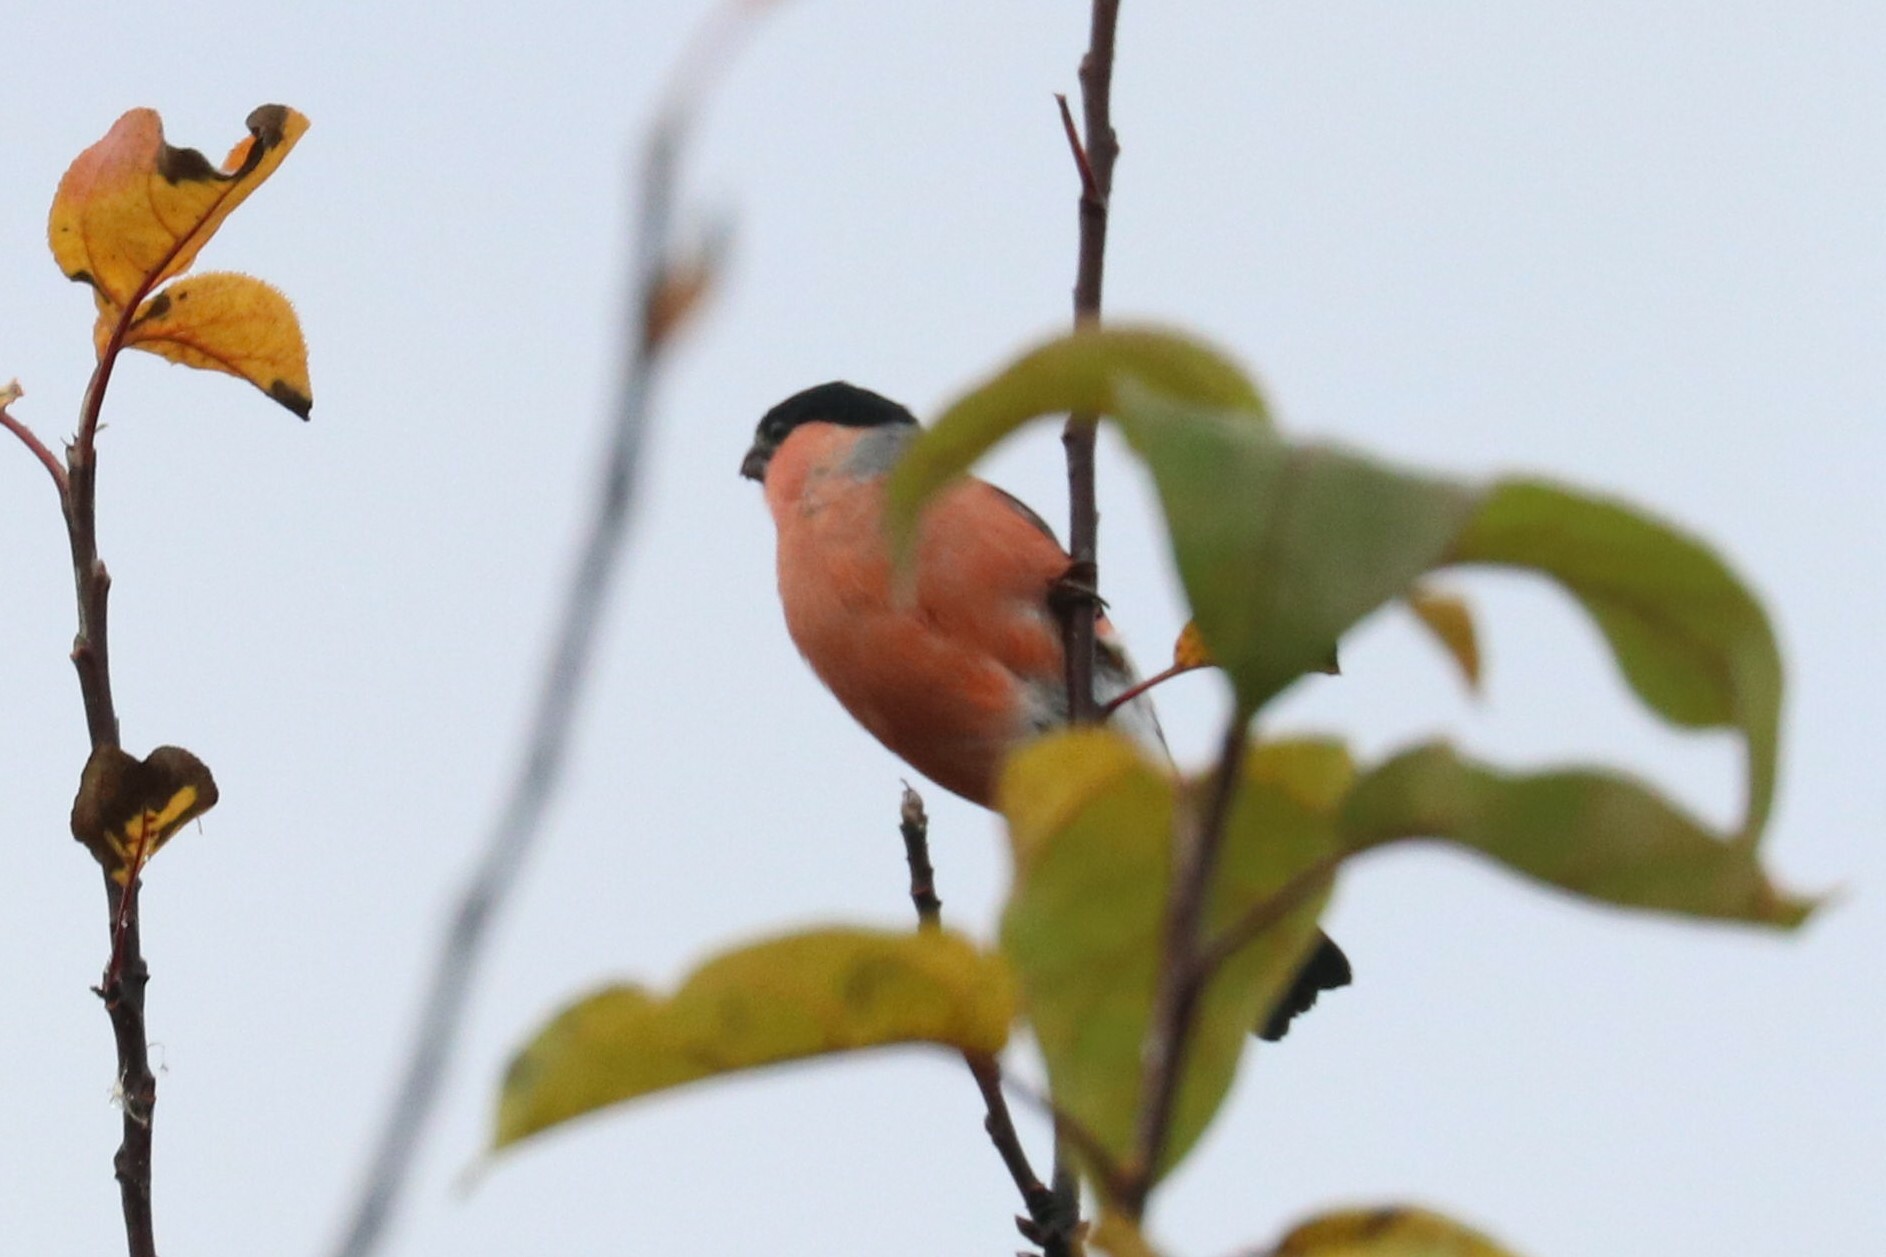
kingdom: Animalia
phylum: Chordata
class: Aves
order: Passeriformes
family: Fringillidae
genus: Pyrrhula
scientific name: Pyrrhula pyrrhula
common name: Eurasian bullfinch
